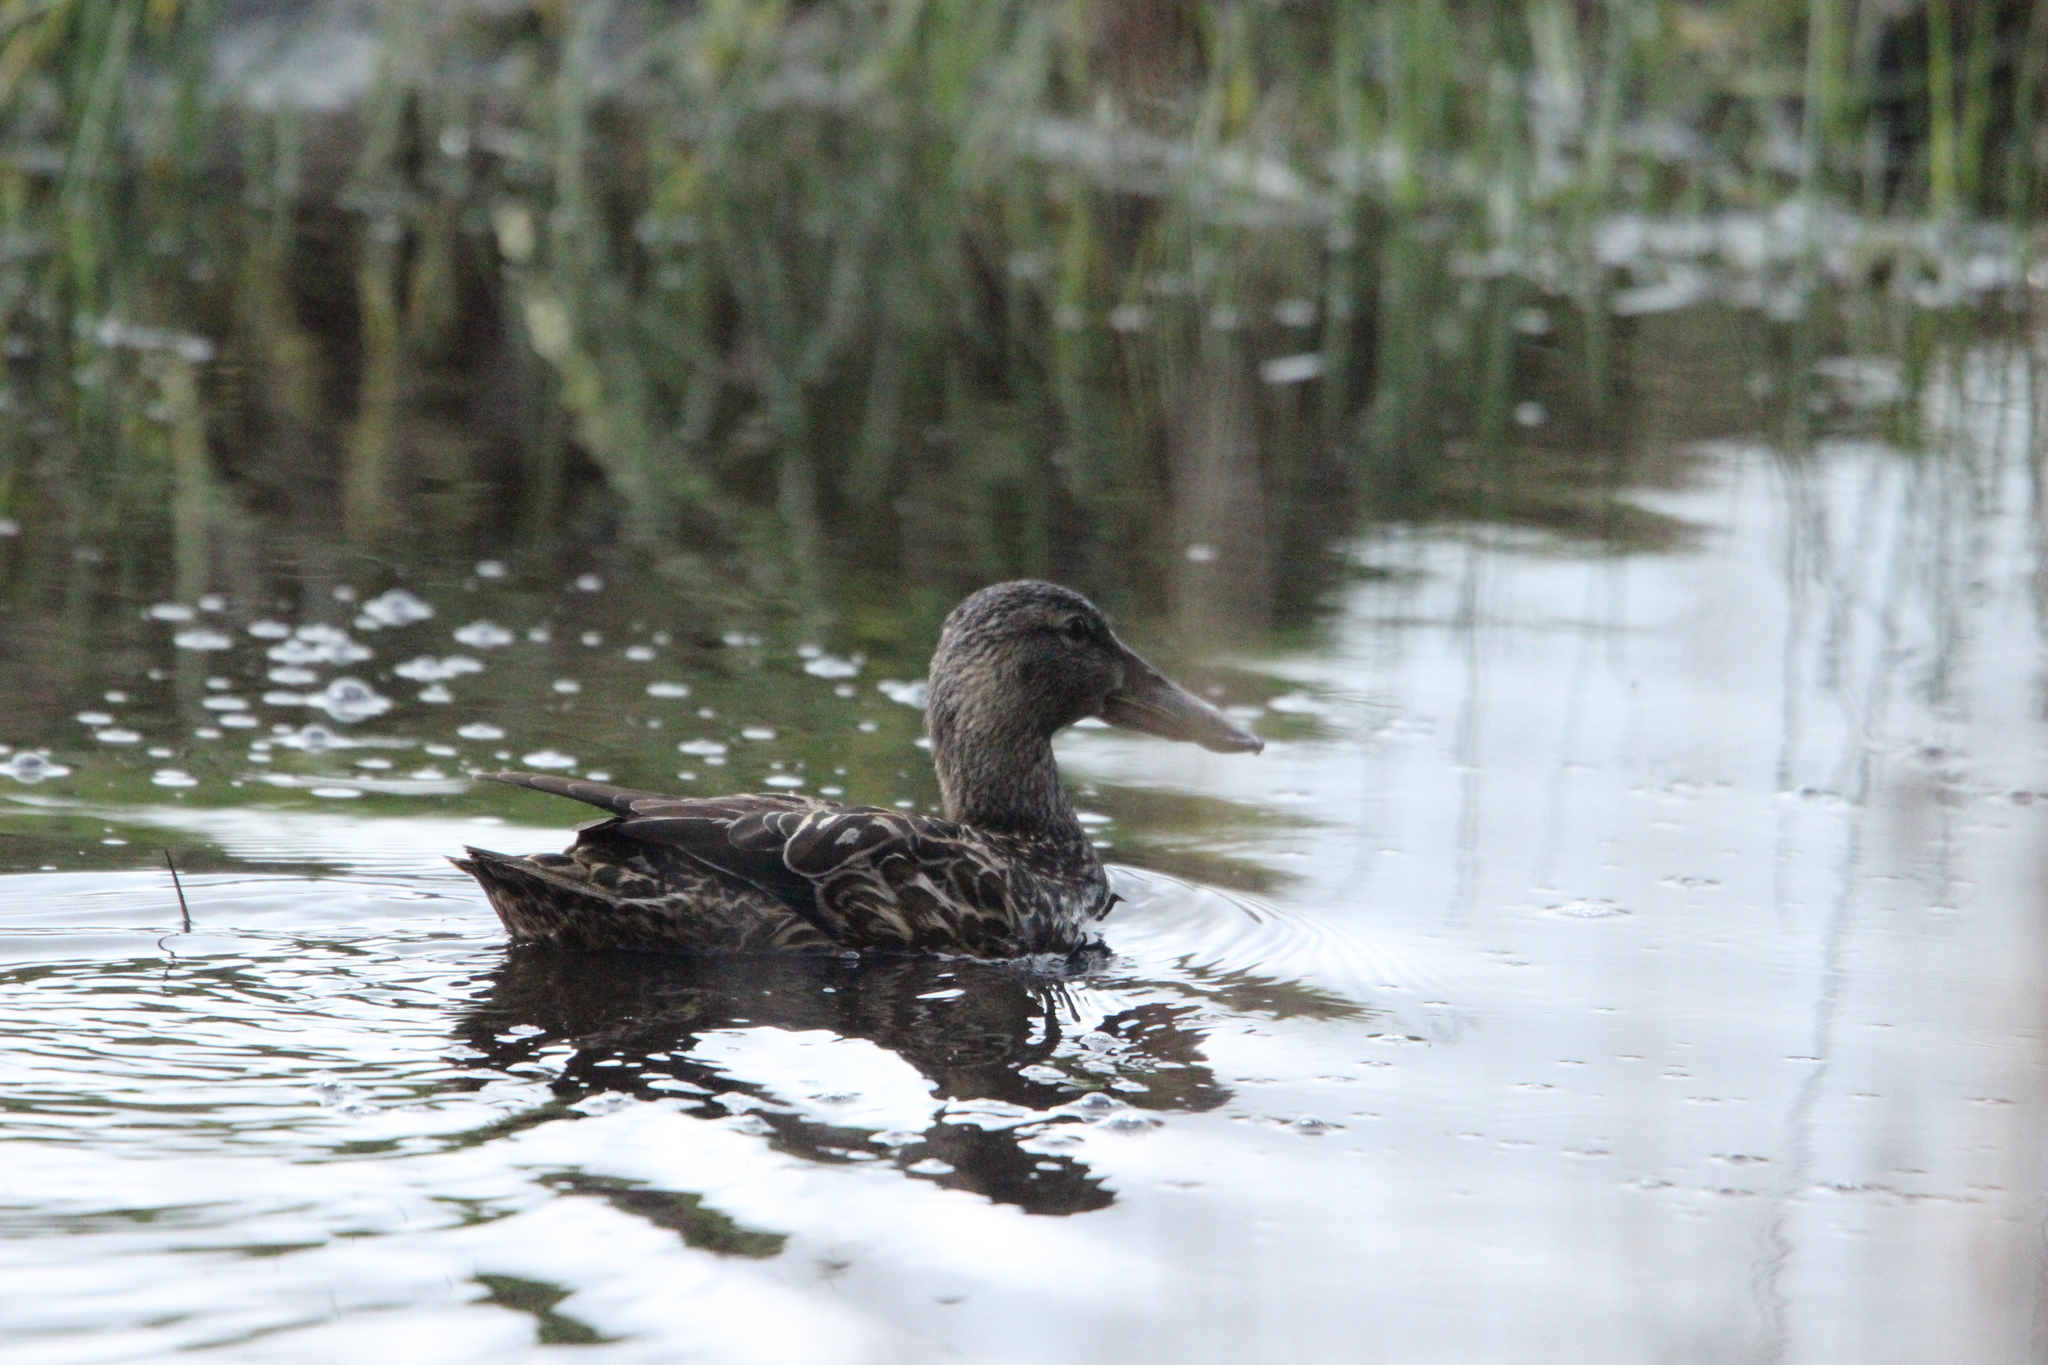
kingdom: Animalia
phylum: Chordata
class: Aves
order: Anseriformes
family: Anatidae
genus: Spatula
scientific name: Spatula rhynchotis
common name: Australian shoveler
